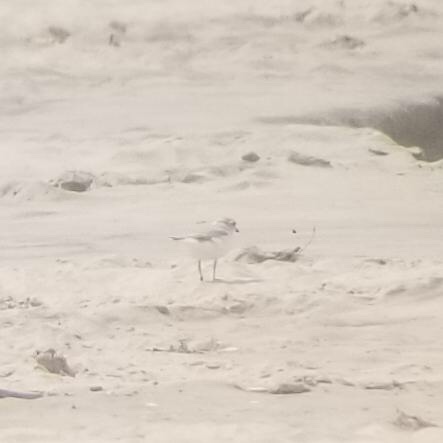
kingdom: Animalia
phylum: Chordata
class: Aves
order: Charadriiformes
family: Charadriidae
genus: Charadrius
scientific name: Charadrius melodus
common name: Piping plover
